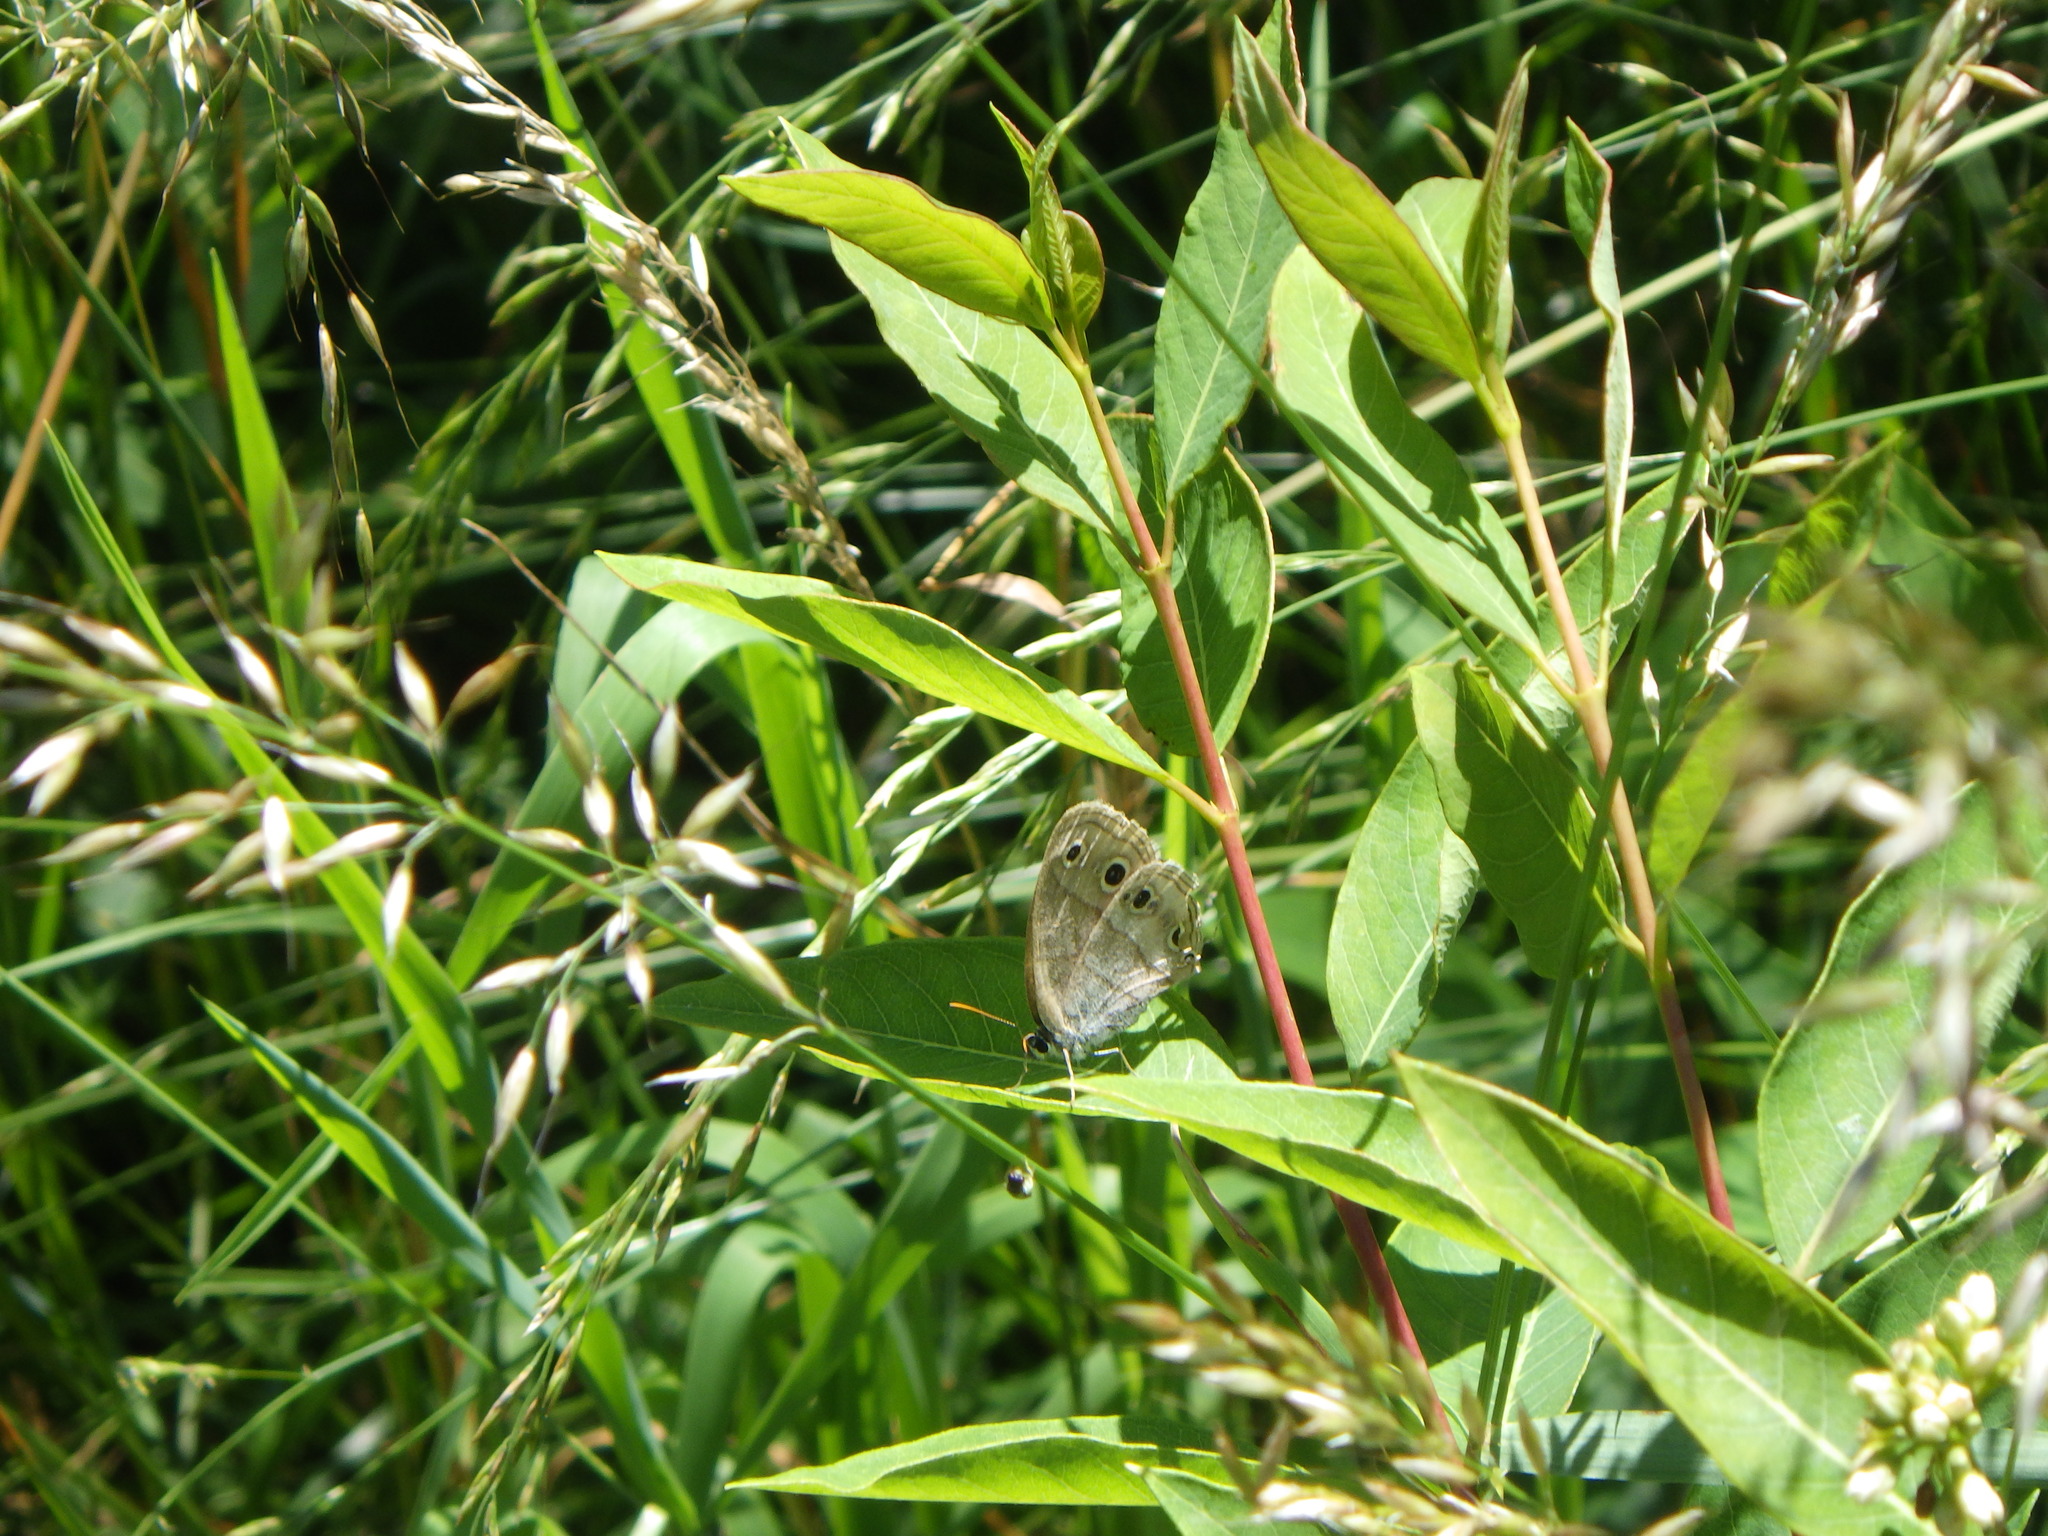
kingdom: Animalia
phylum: Arthropoda
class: Insecta
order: Lepidoptera
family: Nymphalidae
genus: Euptychia
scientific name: Euptychia cymela
